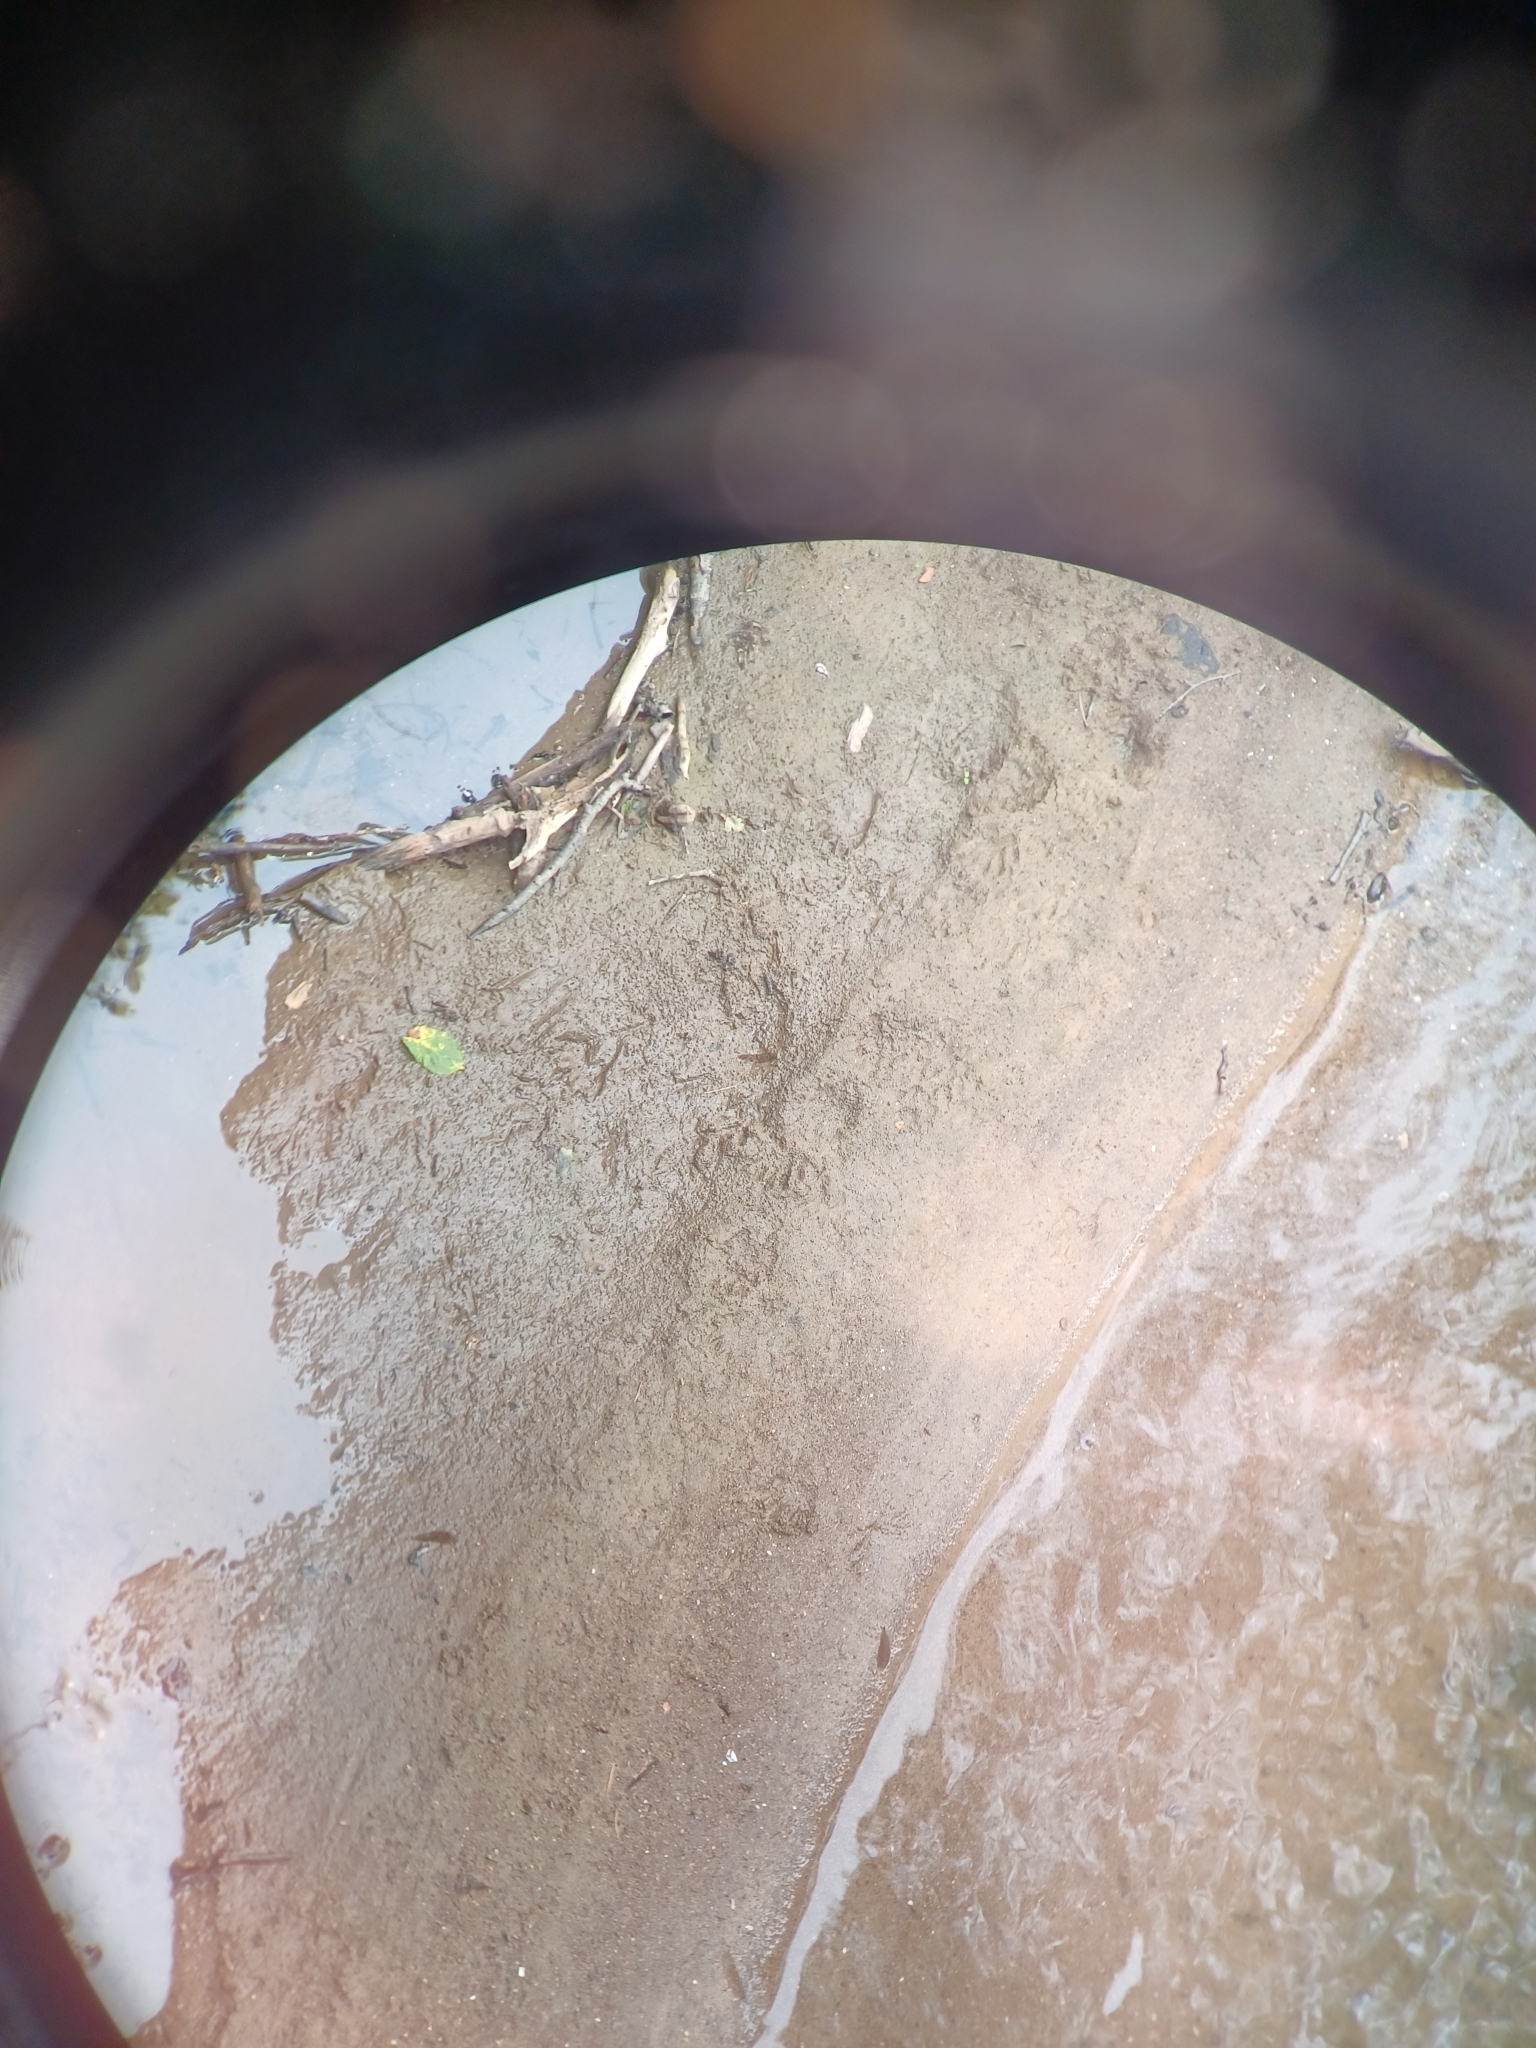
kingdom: Animalia
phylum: Chordata
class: Mammalia
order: Carnivora
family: Procyonidae
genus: Procyon
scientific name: Procyon lotor
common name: Raccoon
